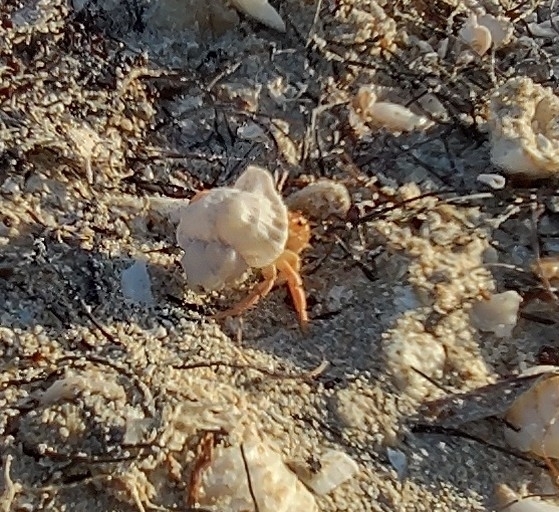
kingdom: Animalia
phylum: Arthropoda
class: Malacostraca
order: Decapoda
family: Coenobitidae
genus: Coenobita
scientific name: Coenobita clypeatus
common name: Caribbean hermit crab
